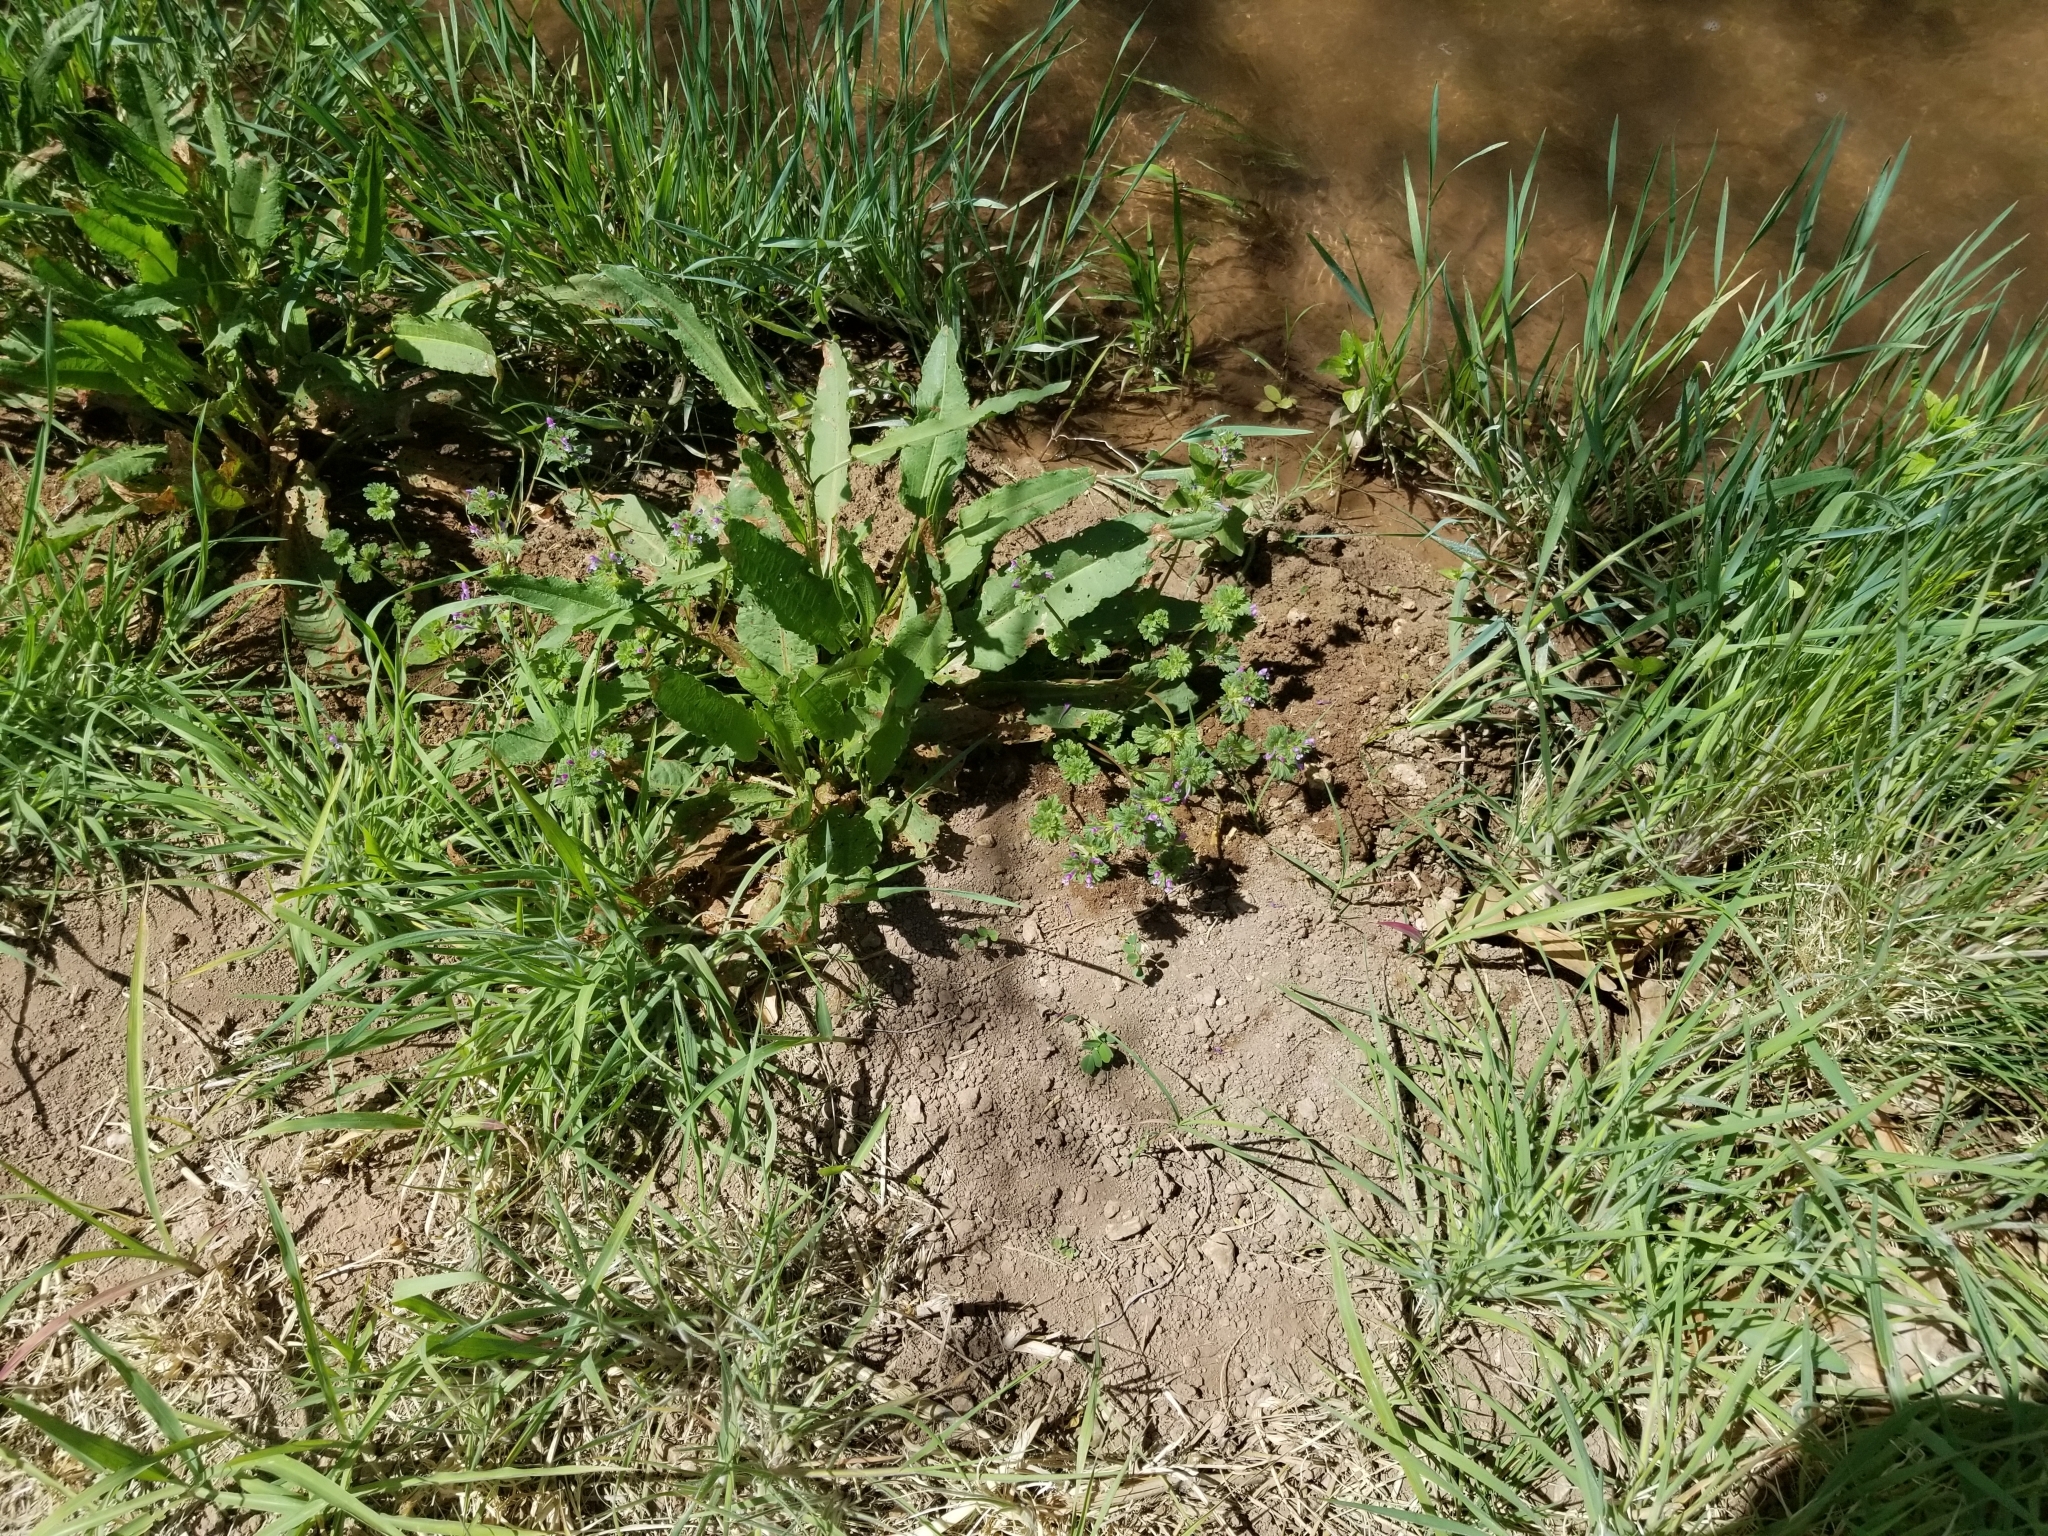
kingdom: Plantae
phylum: Tracheophyta
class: Magnoliopsida
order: Lamiales
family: Lamiaceae
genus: Lamium
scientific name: Lamium amplexicaule
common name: Henbit dead-nettle
